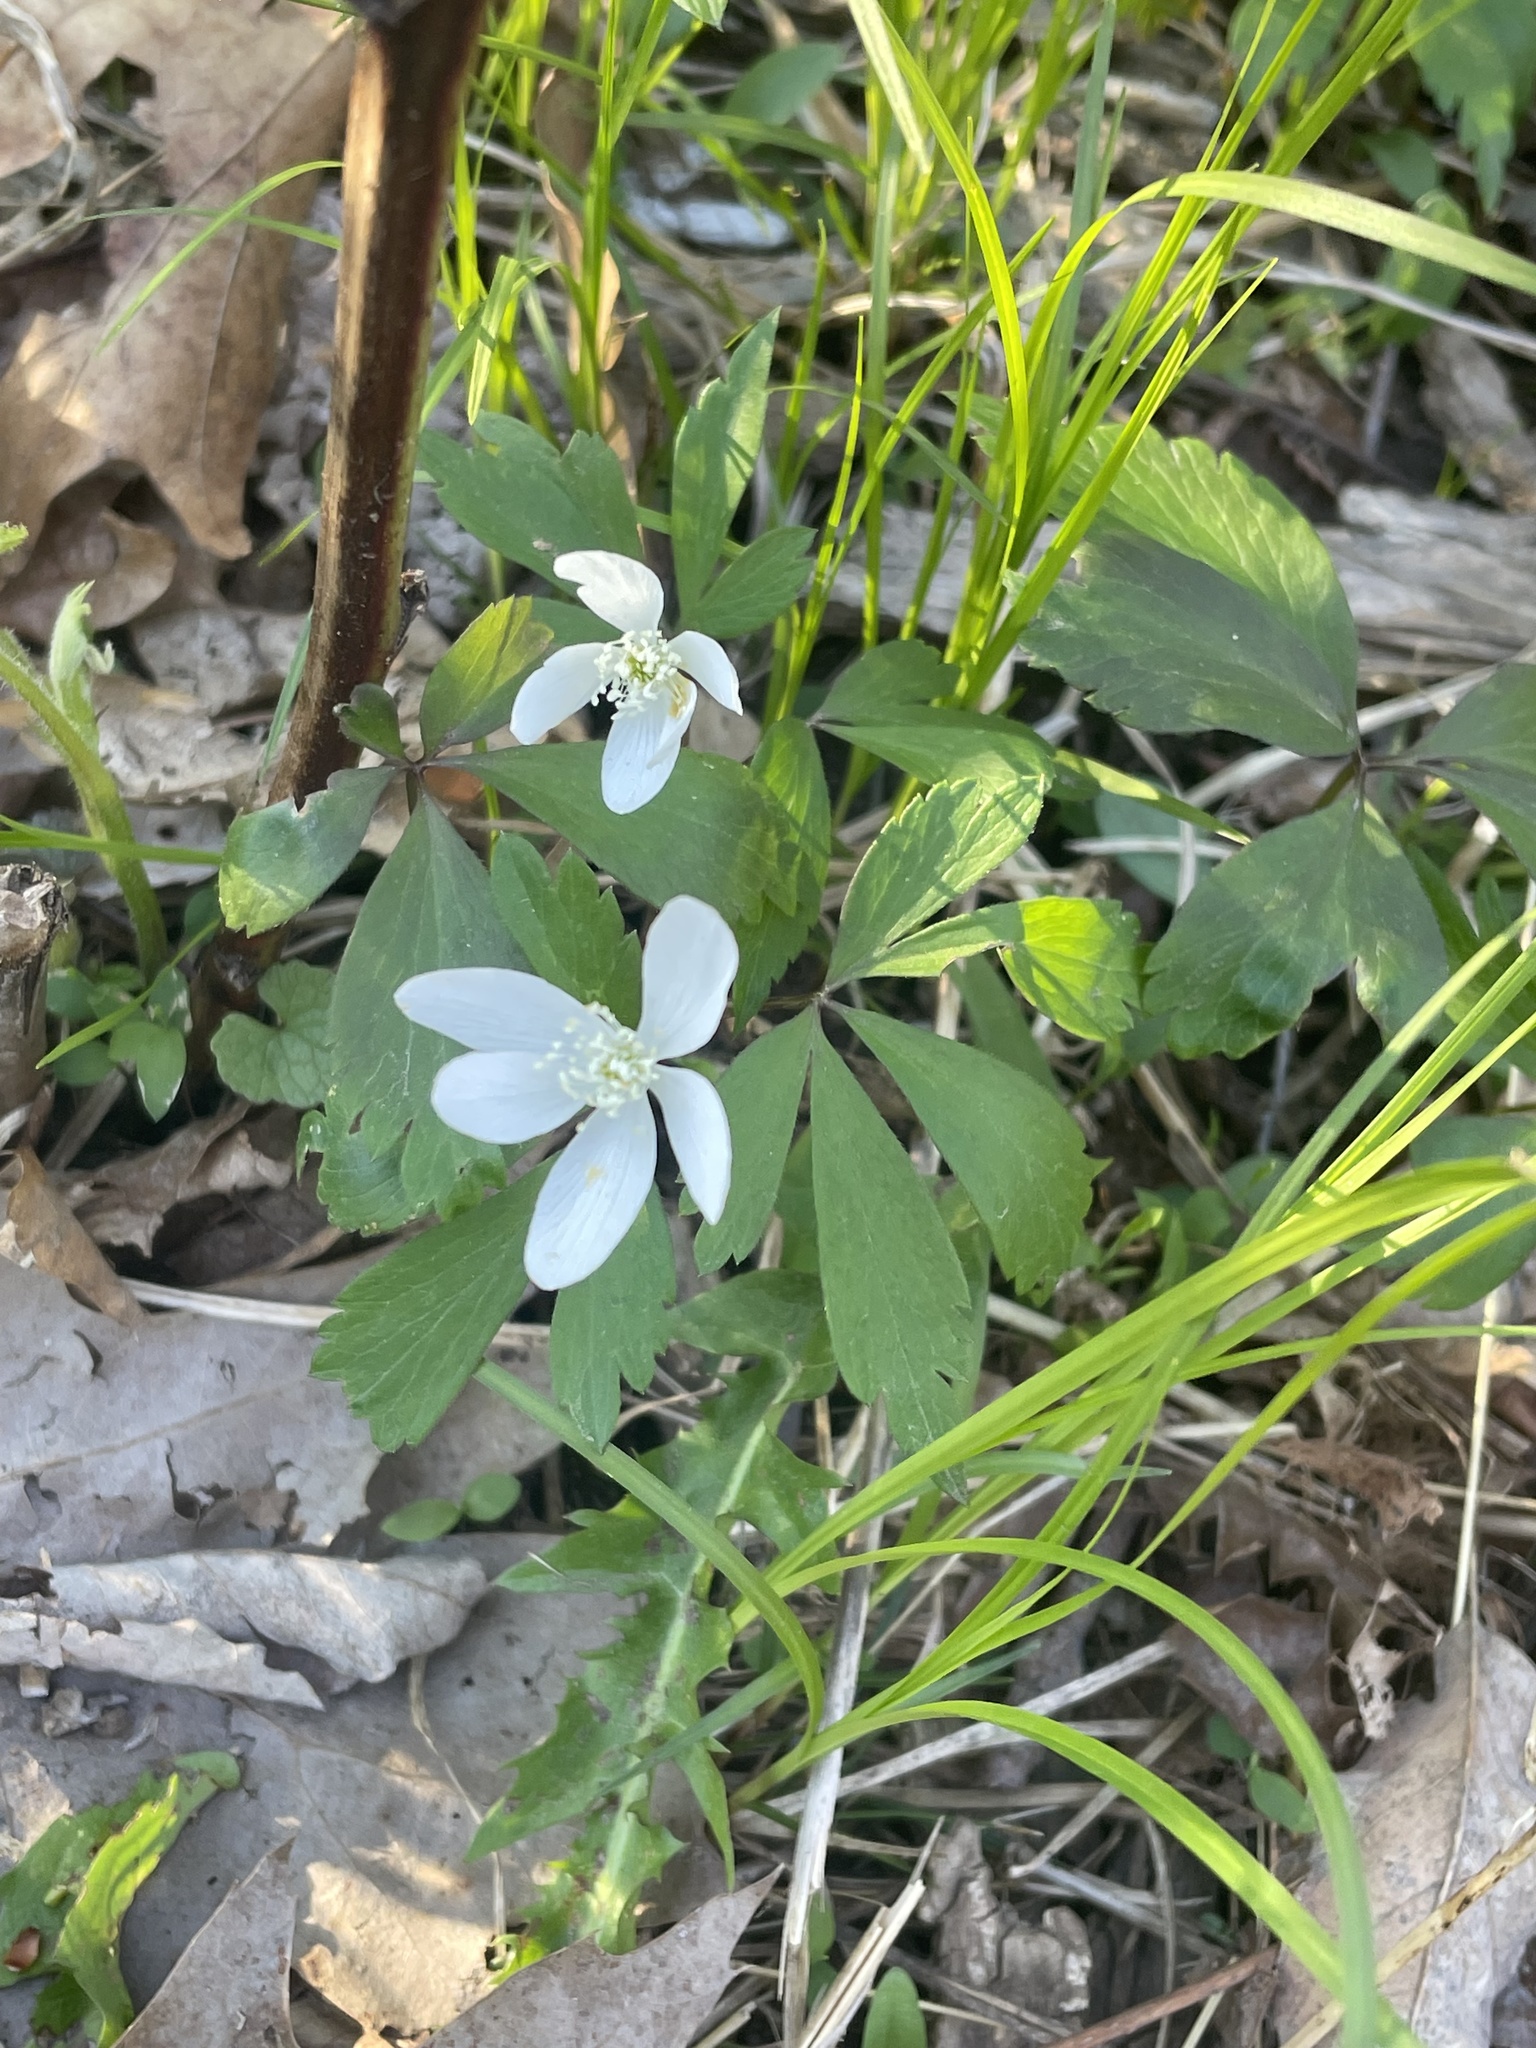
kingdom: Plantae
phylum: Tracheophyta
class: Magnoliopsida
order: Ranunculales
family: Ranunculaceae
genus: Anemone
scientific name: Anemone quinquefolia
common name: Wood anemone
